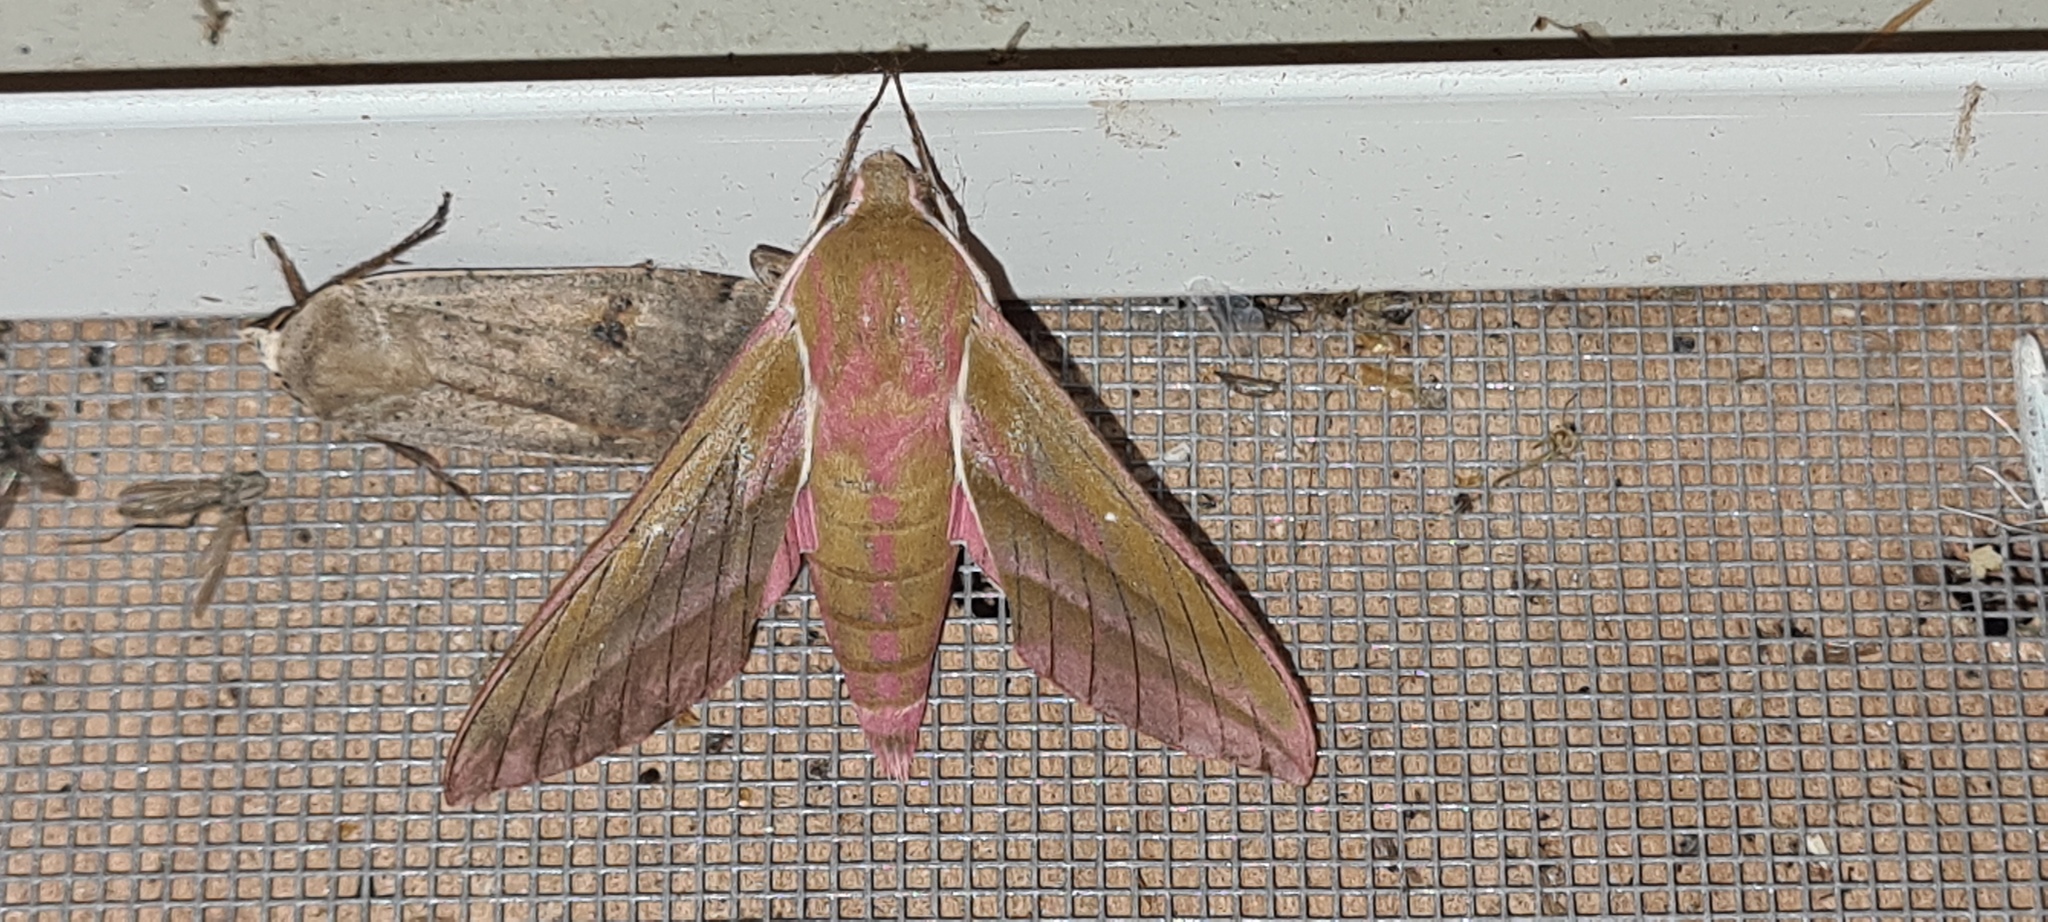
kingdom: Animalia
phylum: Arthropoda
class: Insecta
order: Lepidoptera
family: Sphingidae
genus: Deilephila
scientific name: Deilephila elpenor
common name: Elephant hawk-moth
